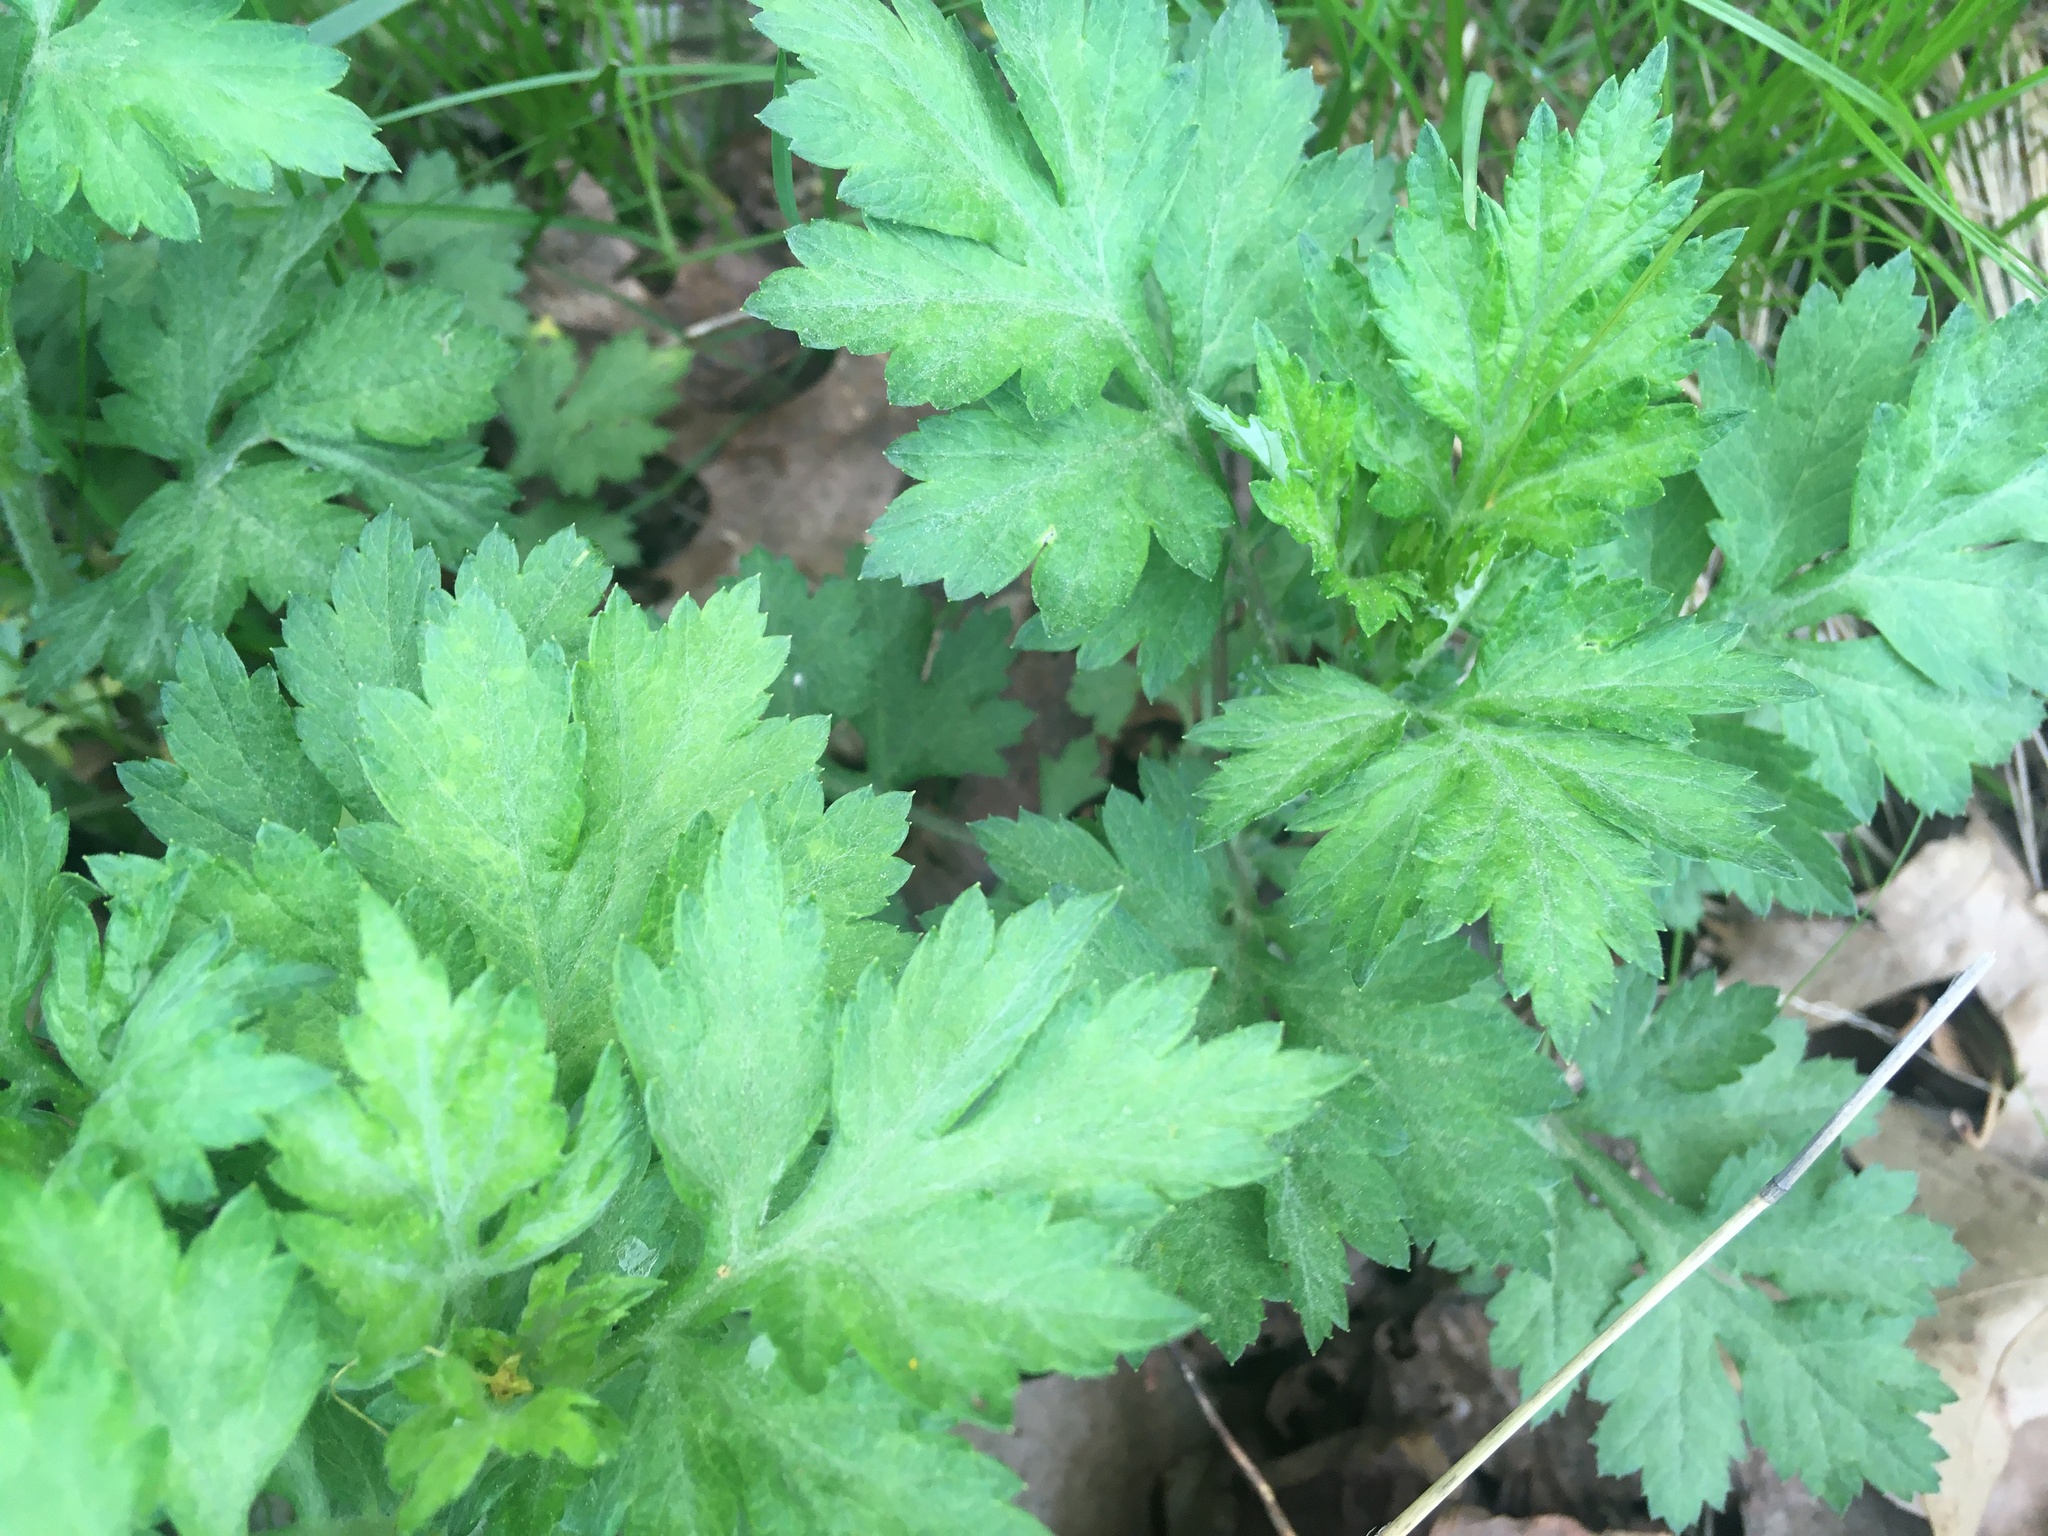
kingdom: Plantae
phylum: Tracheophyta
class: Magnoliopsida
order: Asterales
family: Asteraceae
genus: Artemisia
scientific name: Artemisia vulgaris
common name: Mugwort
